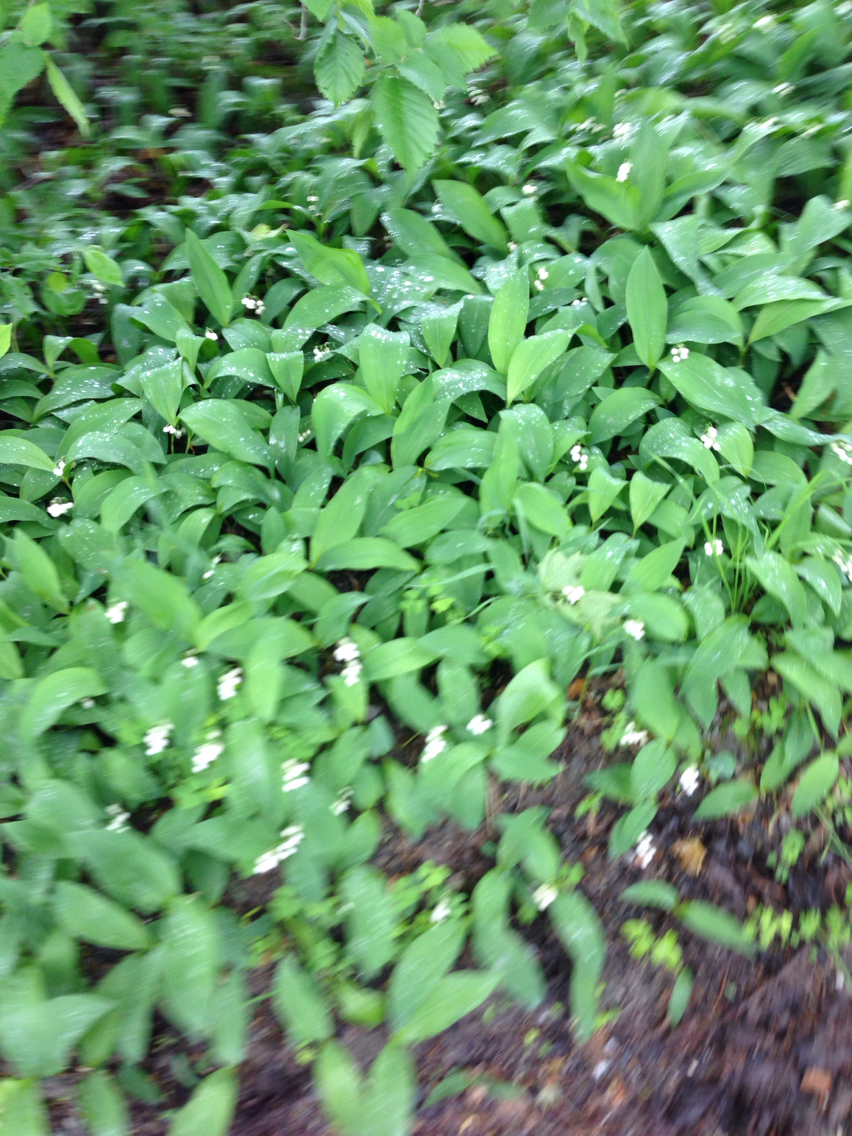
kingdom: Plantae
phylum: Tracheophyta
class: Liliopsida
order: Asparagales
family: Asparagaceae
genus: Convallaria
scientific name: Convallaria majalis
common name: Lily-of-the-valley
